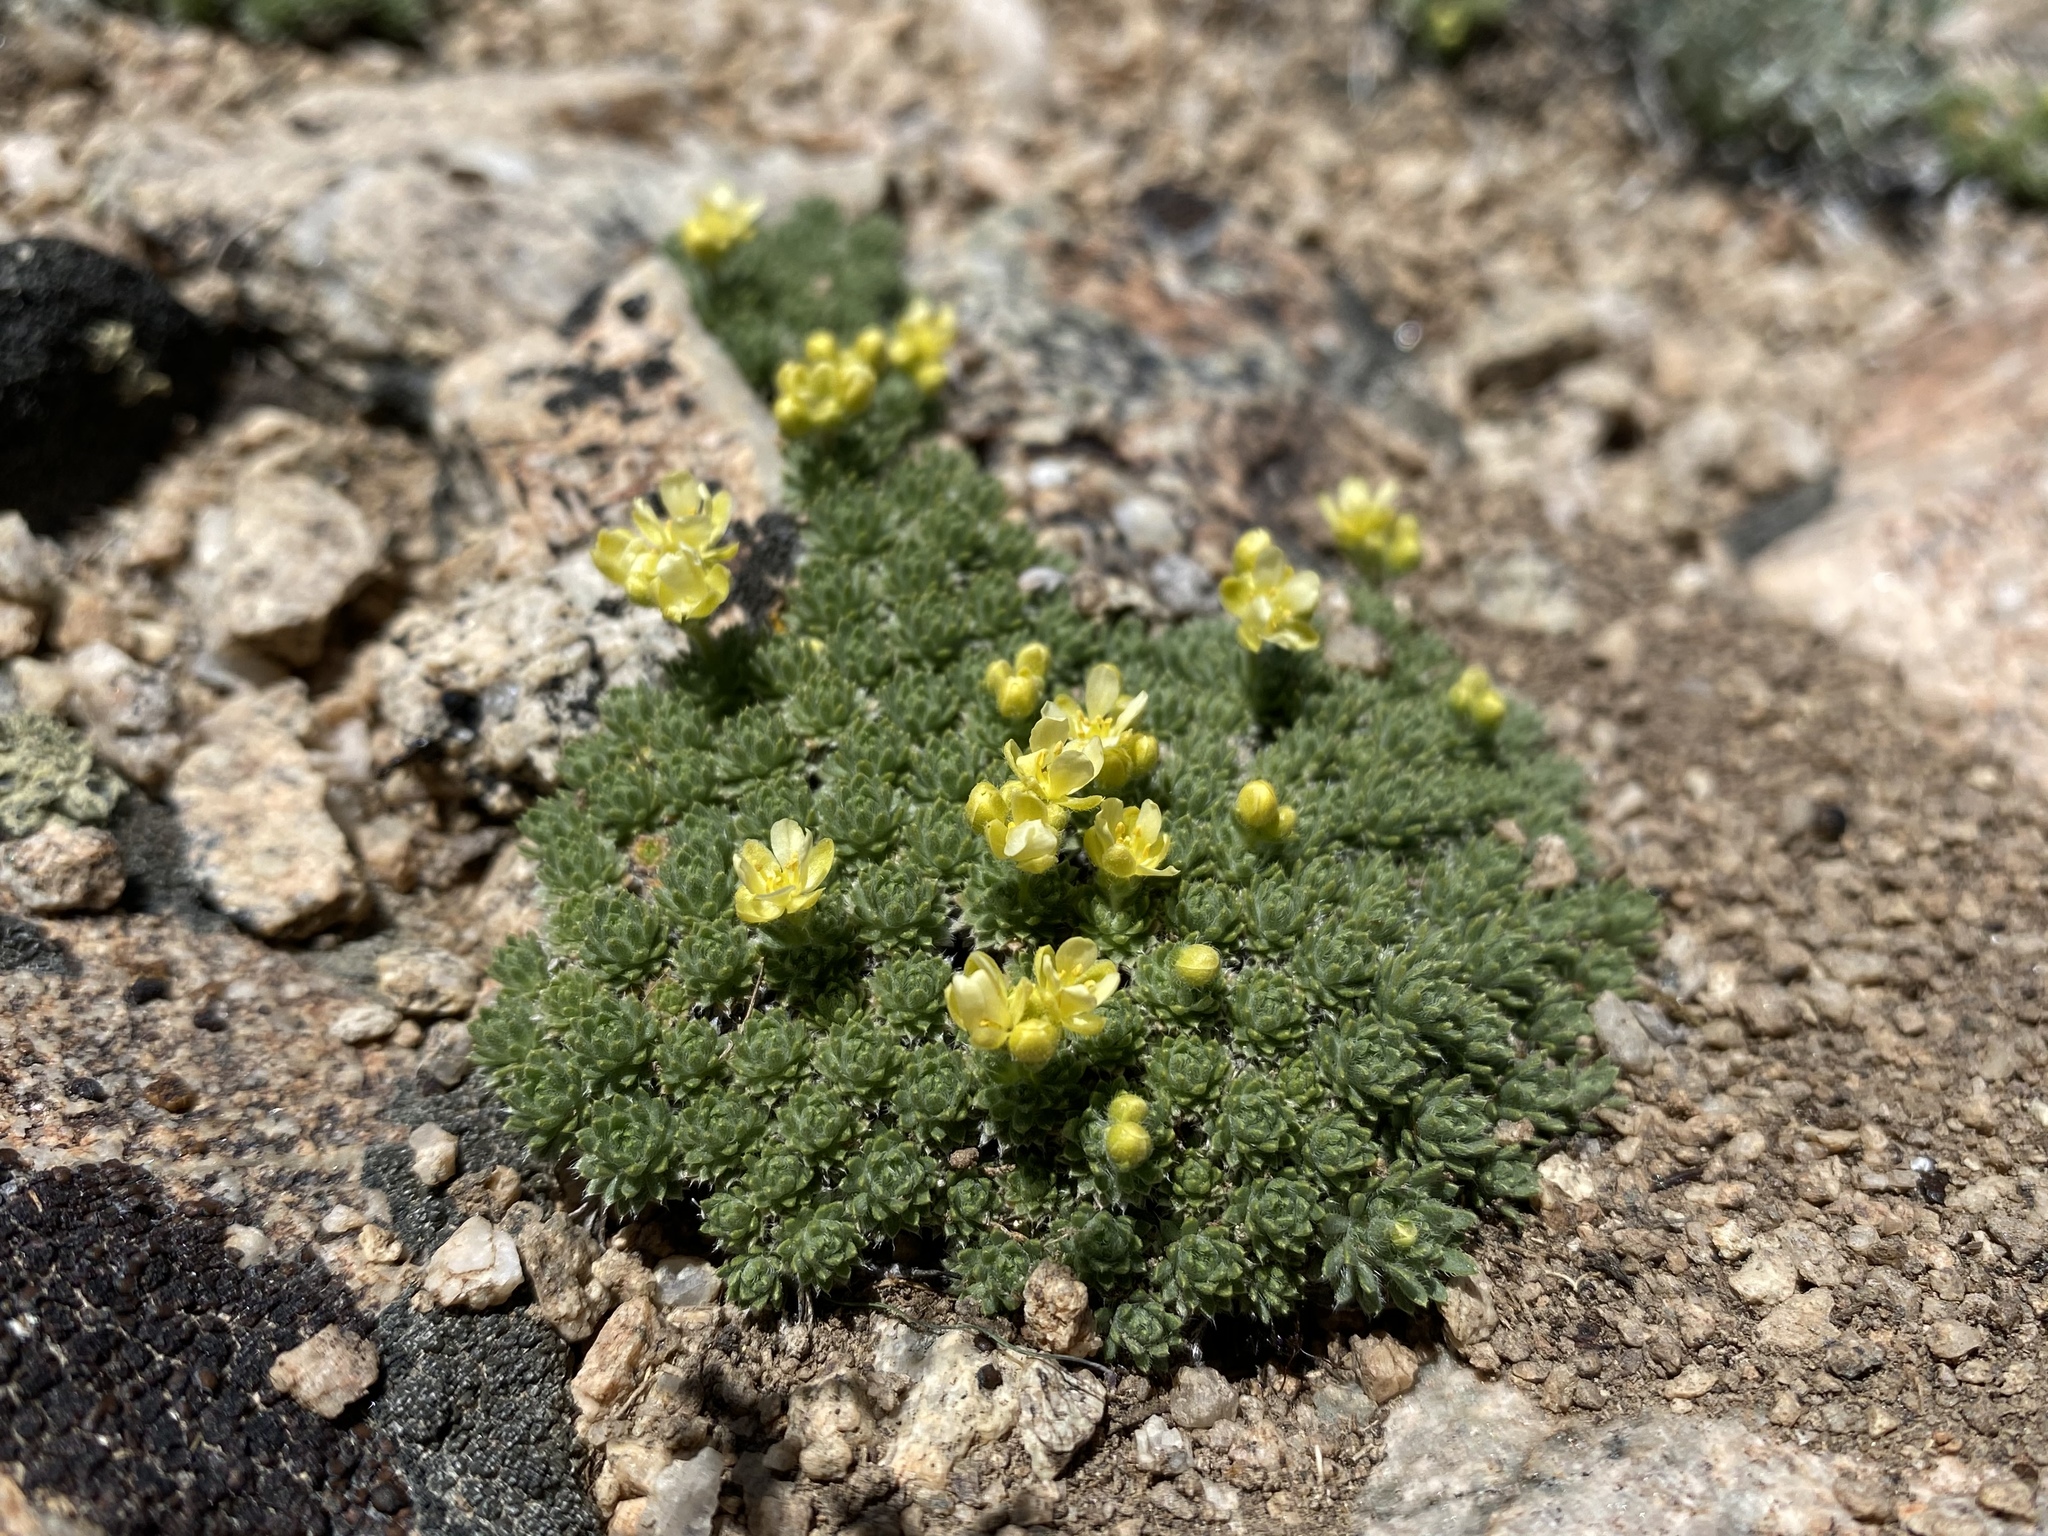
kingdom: Plantae
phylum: Tracheophyta
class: Magnoliopsida
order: Brassicales
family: Brassicaceae
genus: Cusickiella
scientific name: Cusickiella quadricostata
